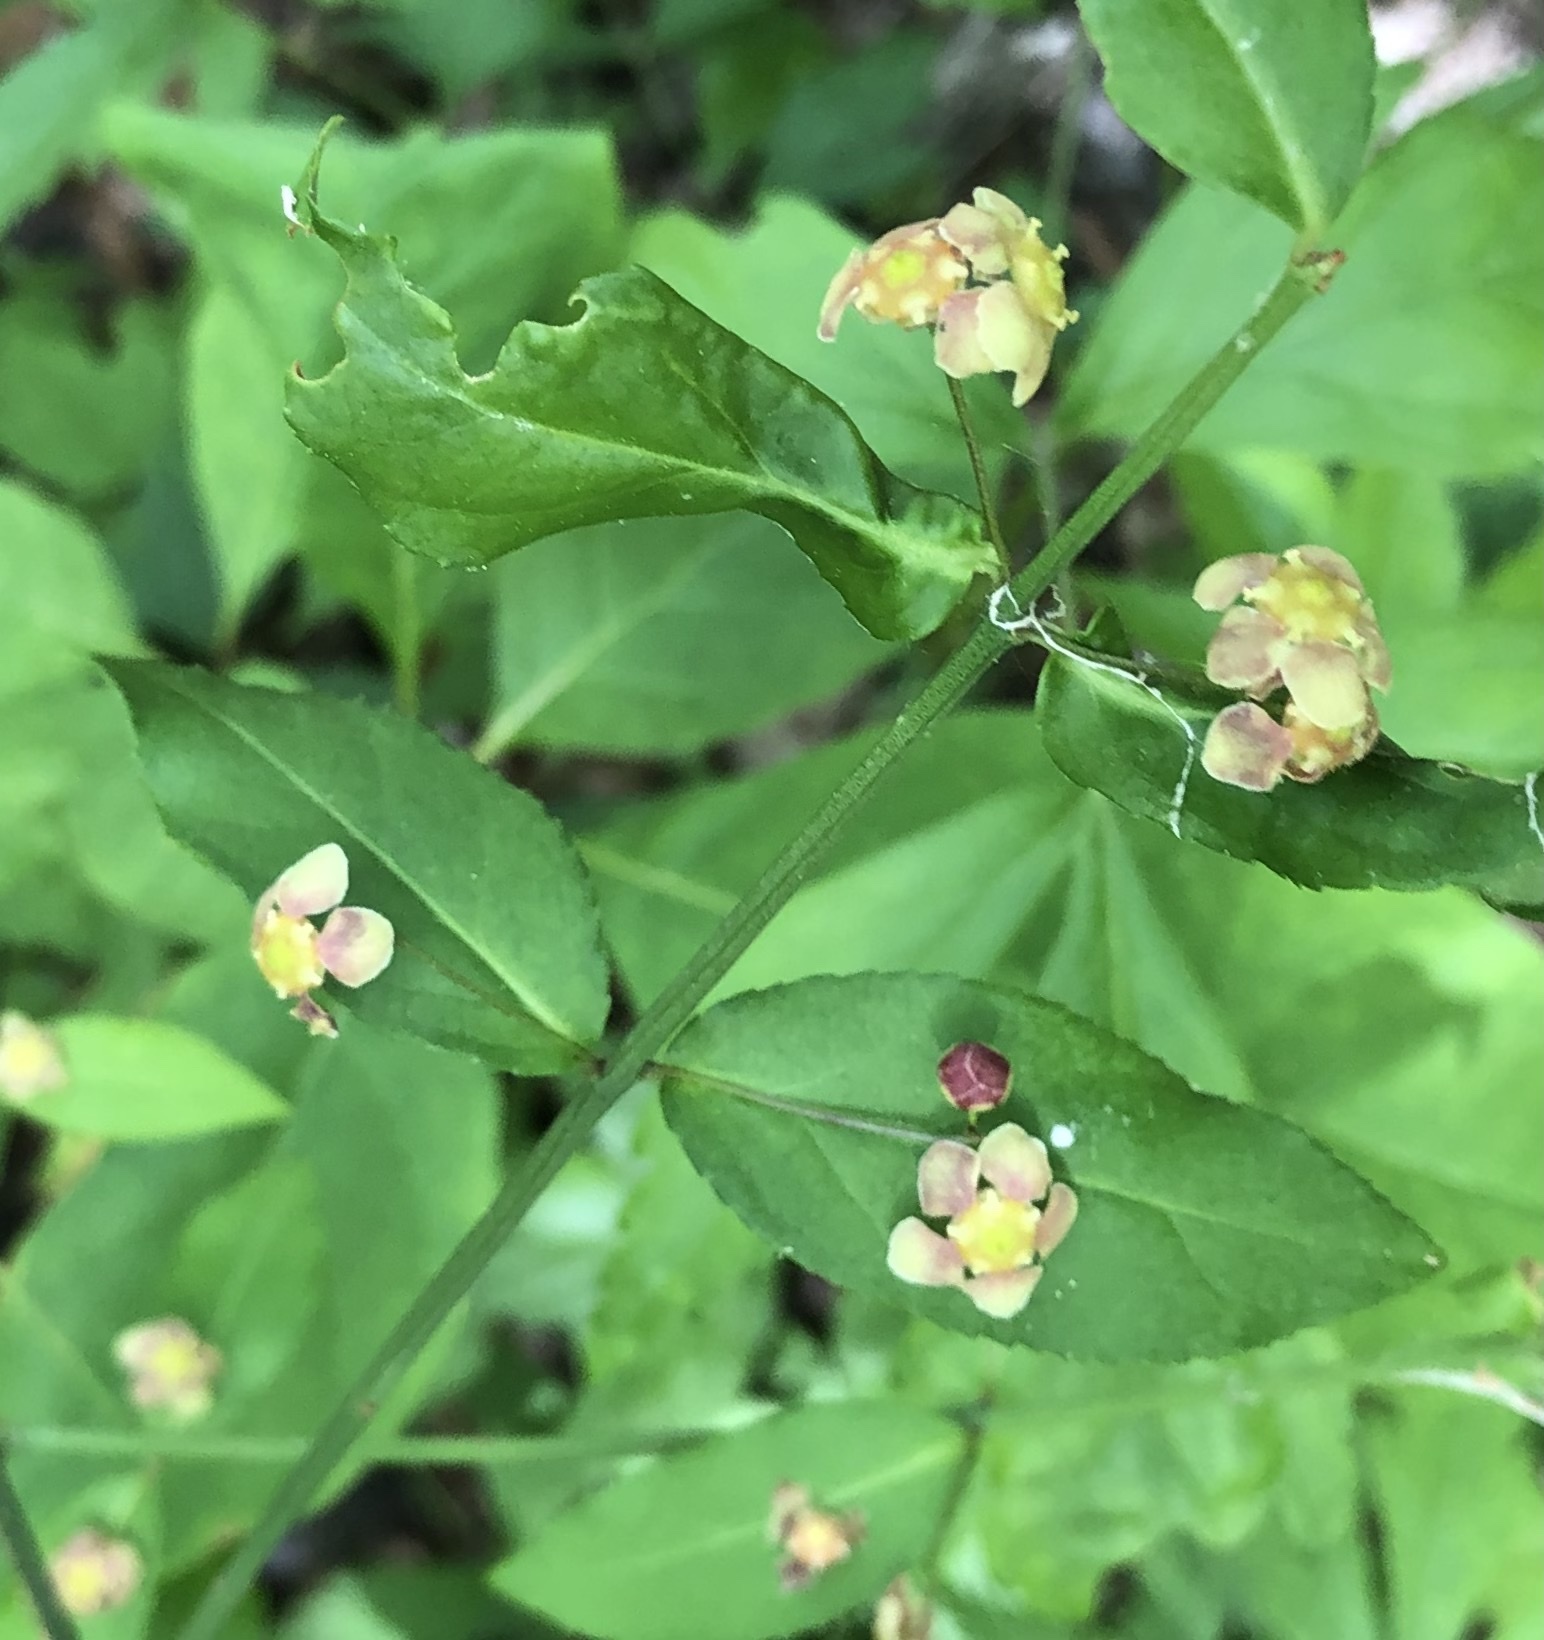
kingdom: Plantae
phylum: Tracheophyta
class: Magnoliopsida
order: Celastrales
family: Celastraceae
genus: Euonymus
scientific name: Euonymus americanus
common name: Bursting-heart
